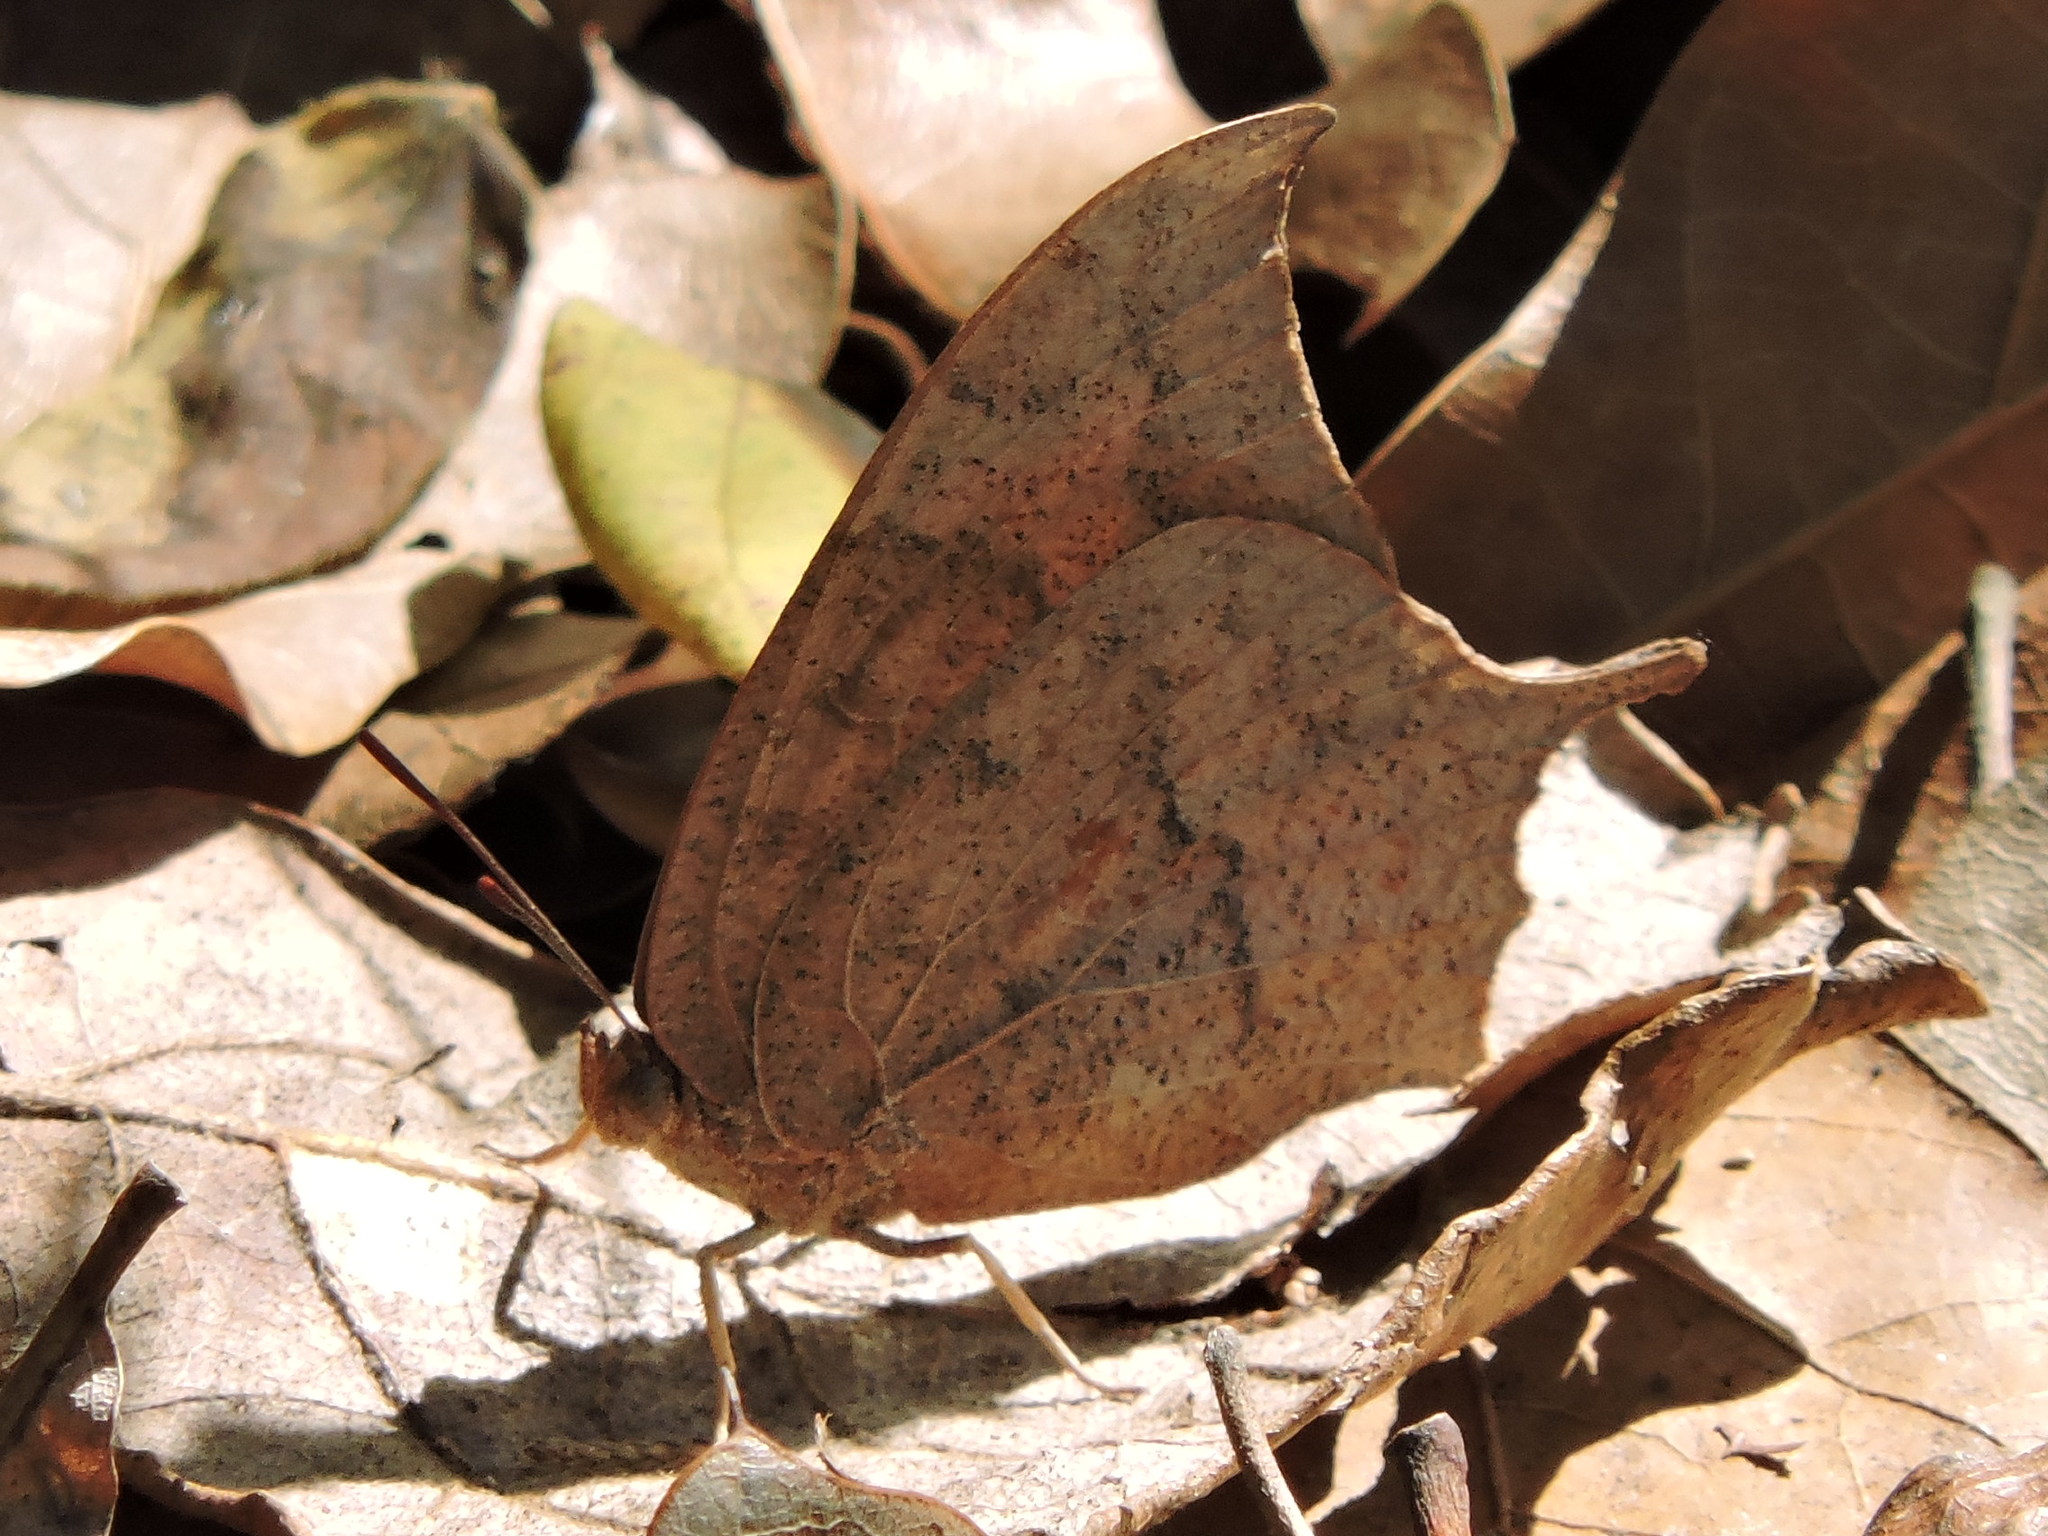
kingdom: Animalia
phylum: Arthropoda
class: Insecta
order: Lepidoptera
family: Nymphalidae
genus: Anaea
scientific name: Anaea andria
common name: Goatweed leafwing
